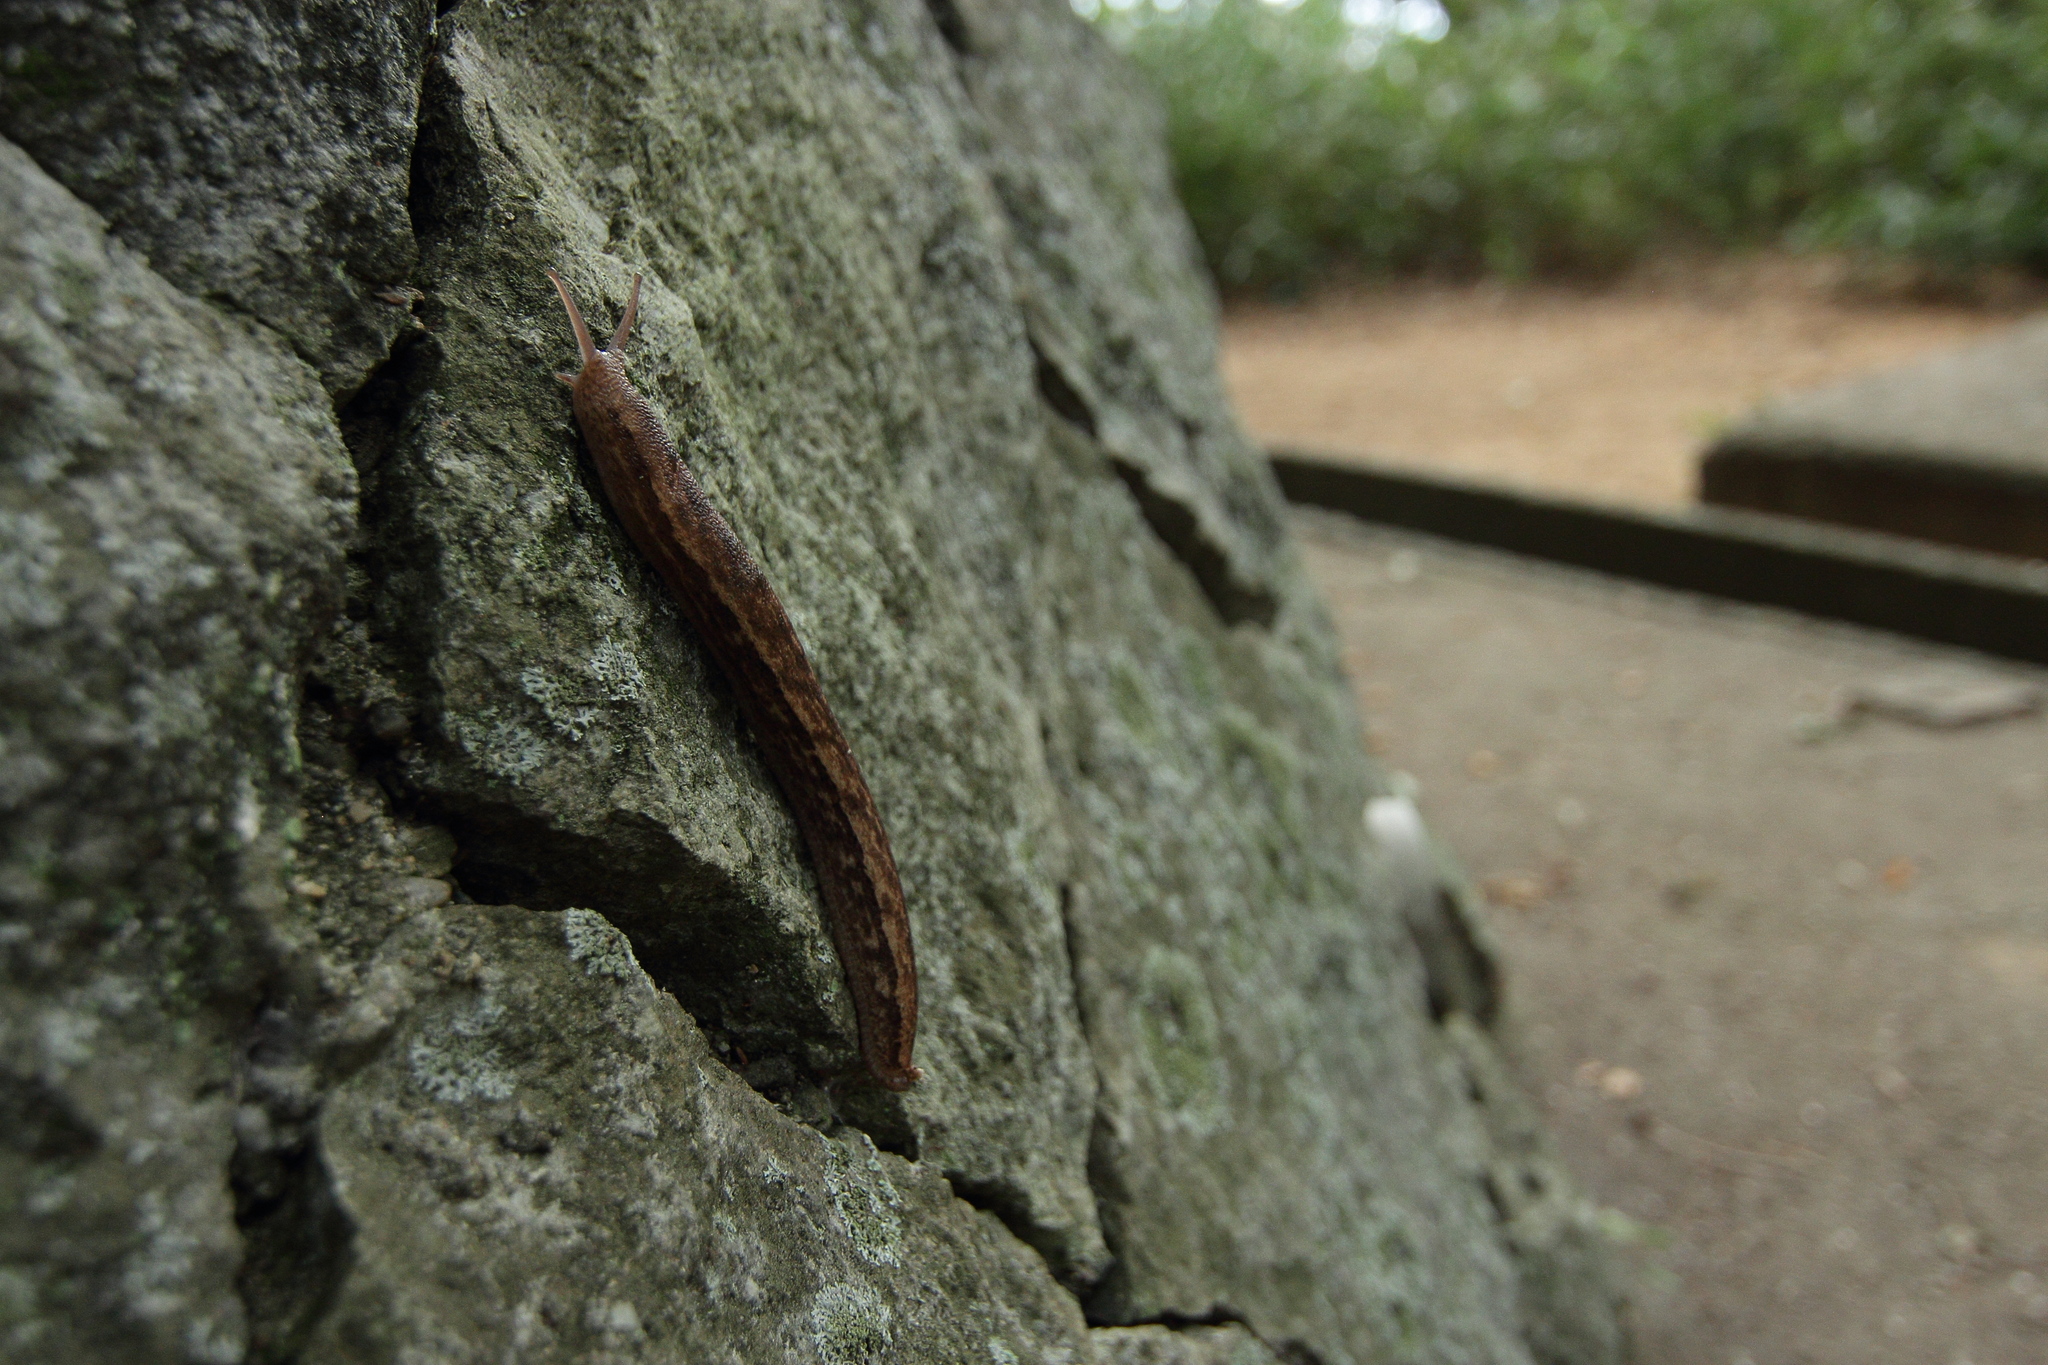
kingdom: Animalia
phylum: Mollusca
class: Gastropoda
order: Stylommatophora
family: Philomycidae
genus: Meghimatium
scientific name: Meghimatium fruhstorferi
